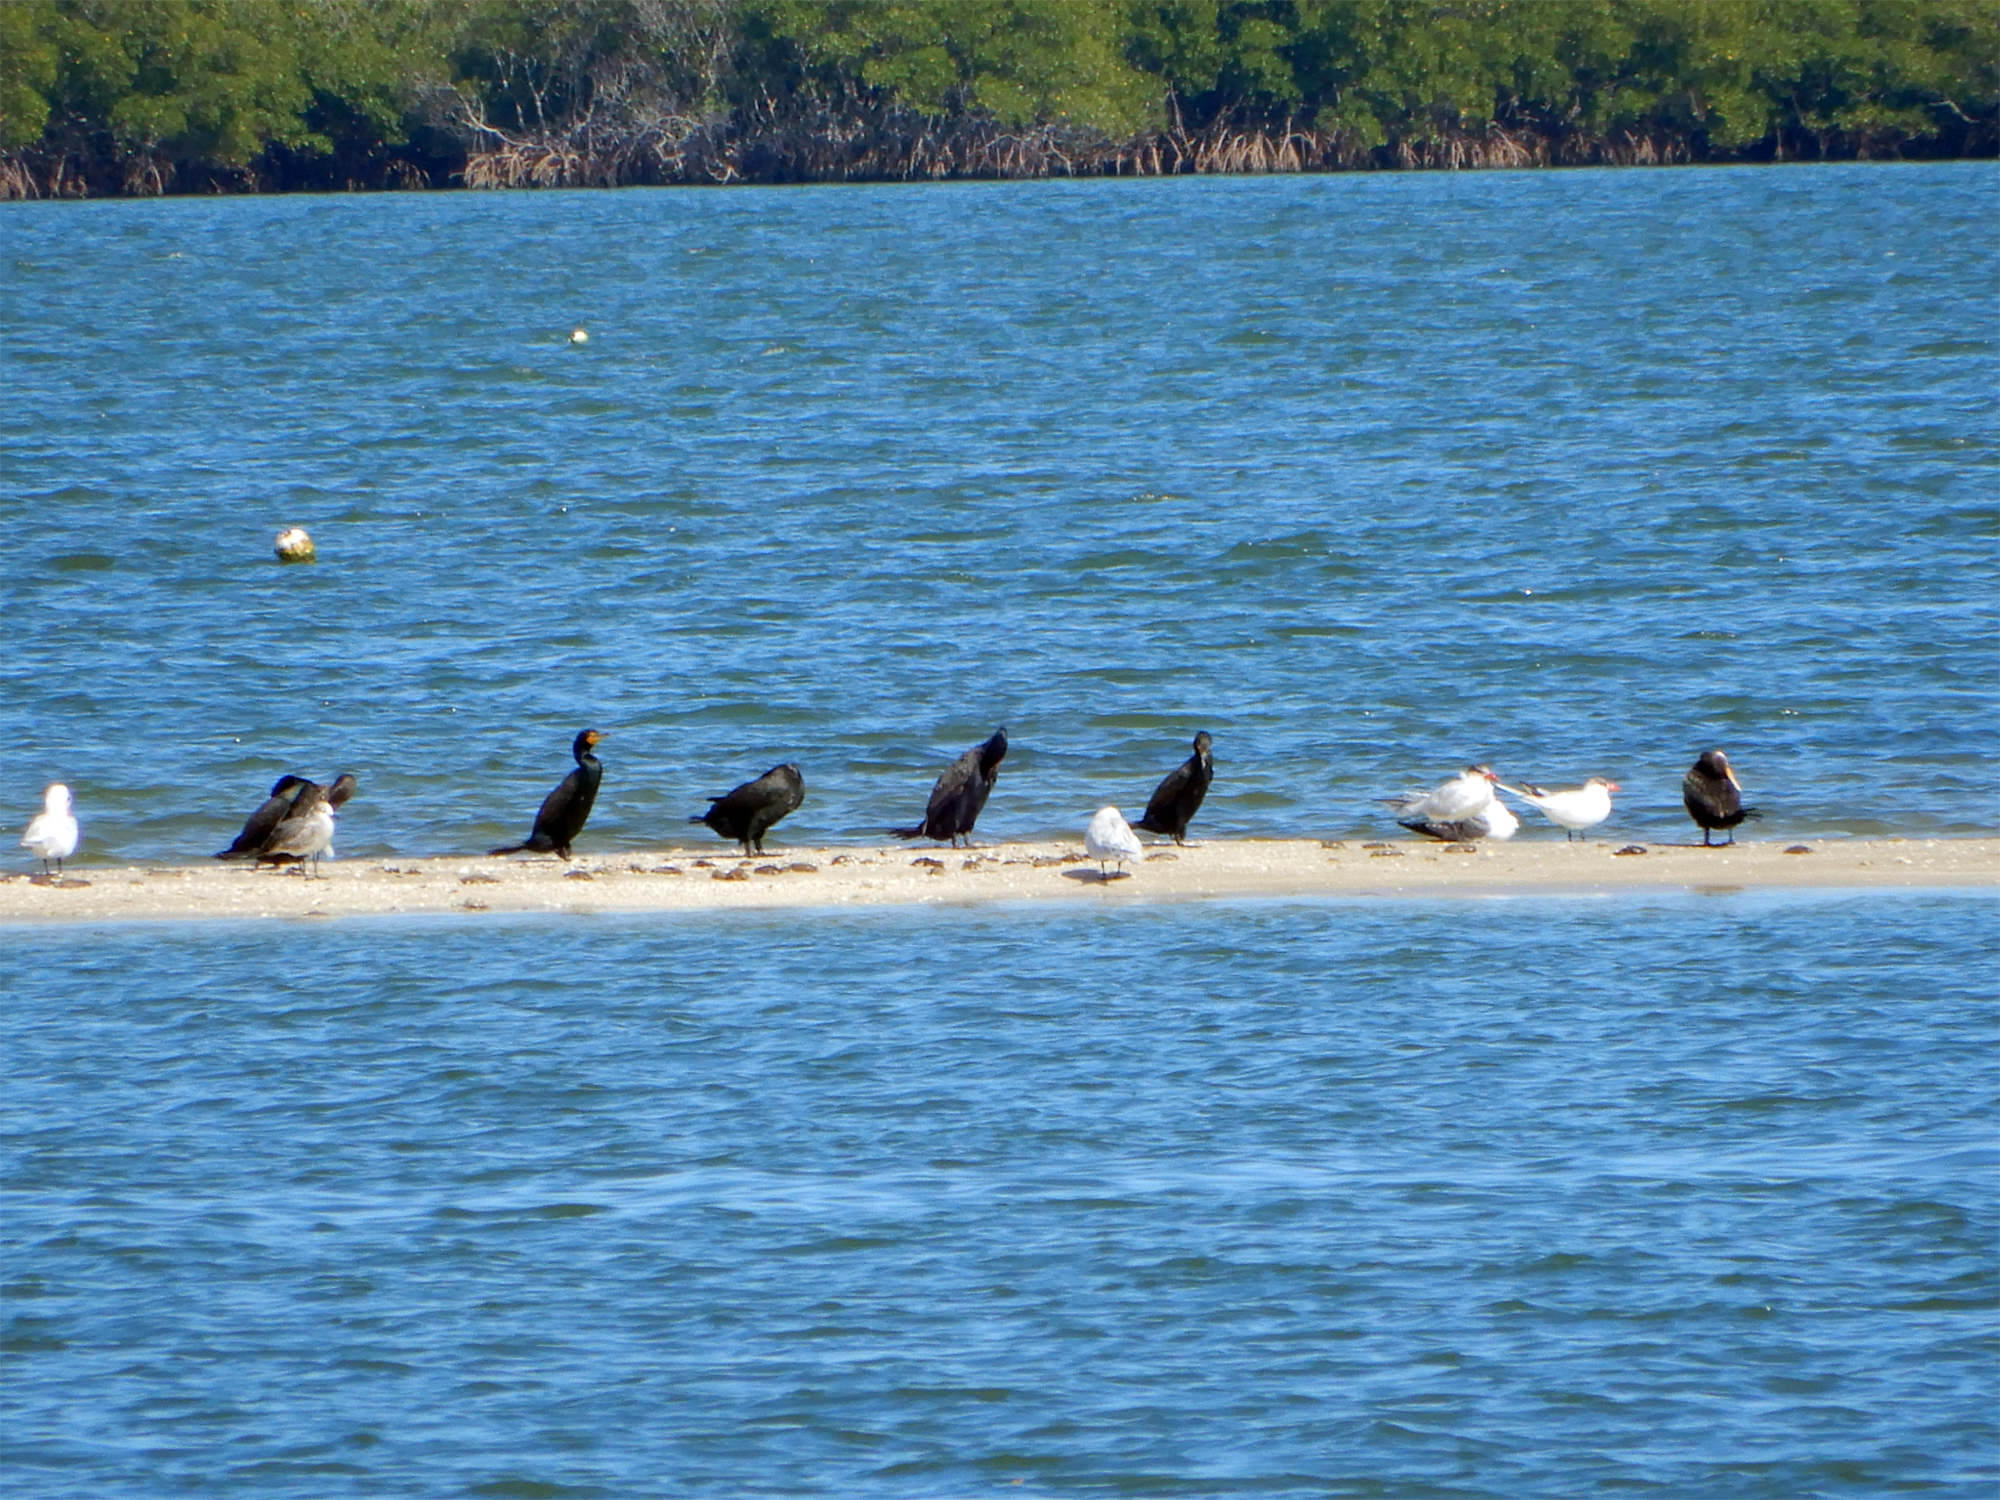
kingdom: Animalia
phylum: Chordata
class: Aves
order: Charadriiformes
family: Laridae
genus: Thalasseus
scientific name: Thalasseus maximus
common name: Royal tern
